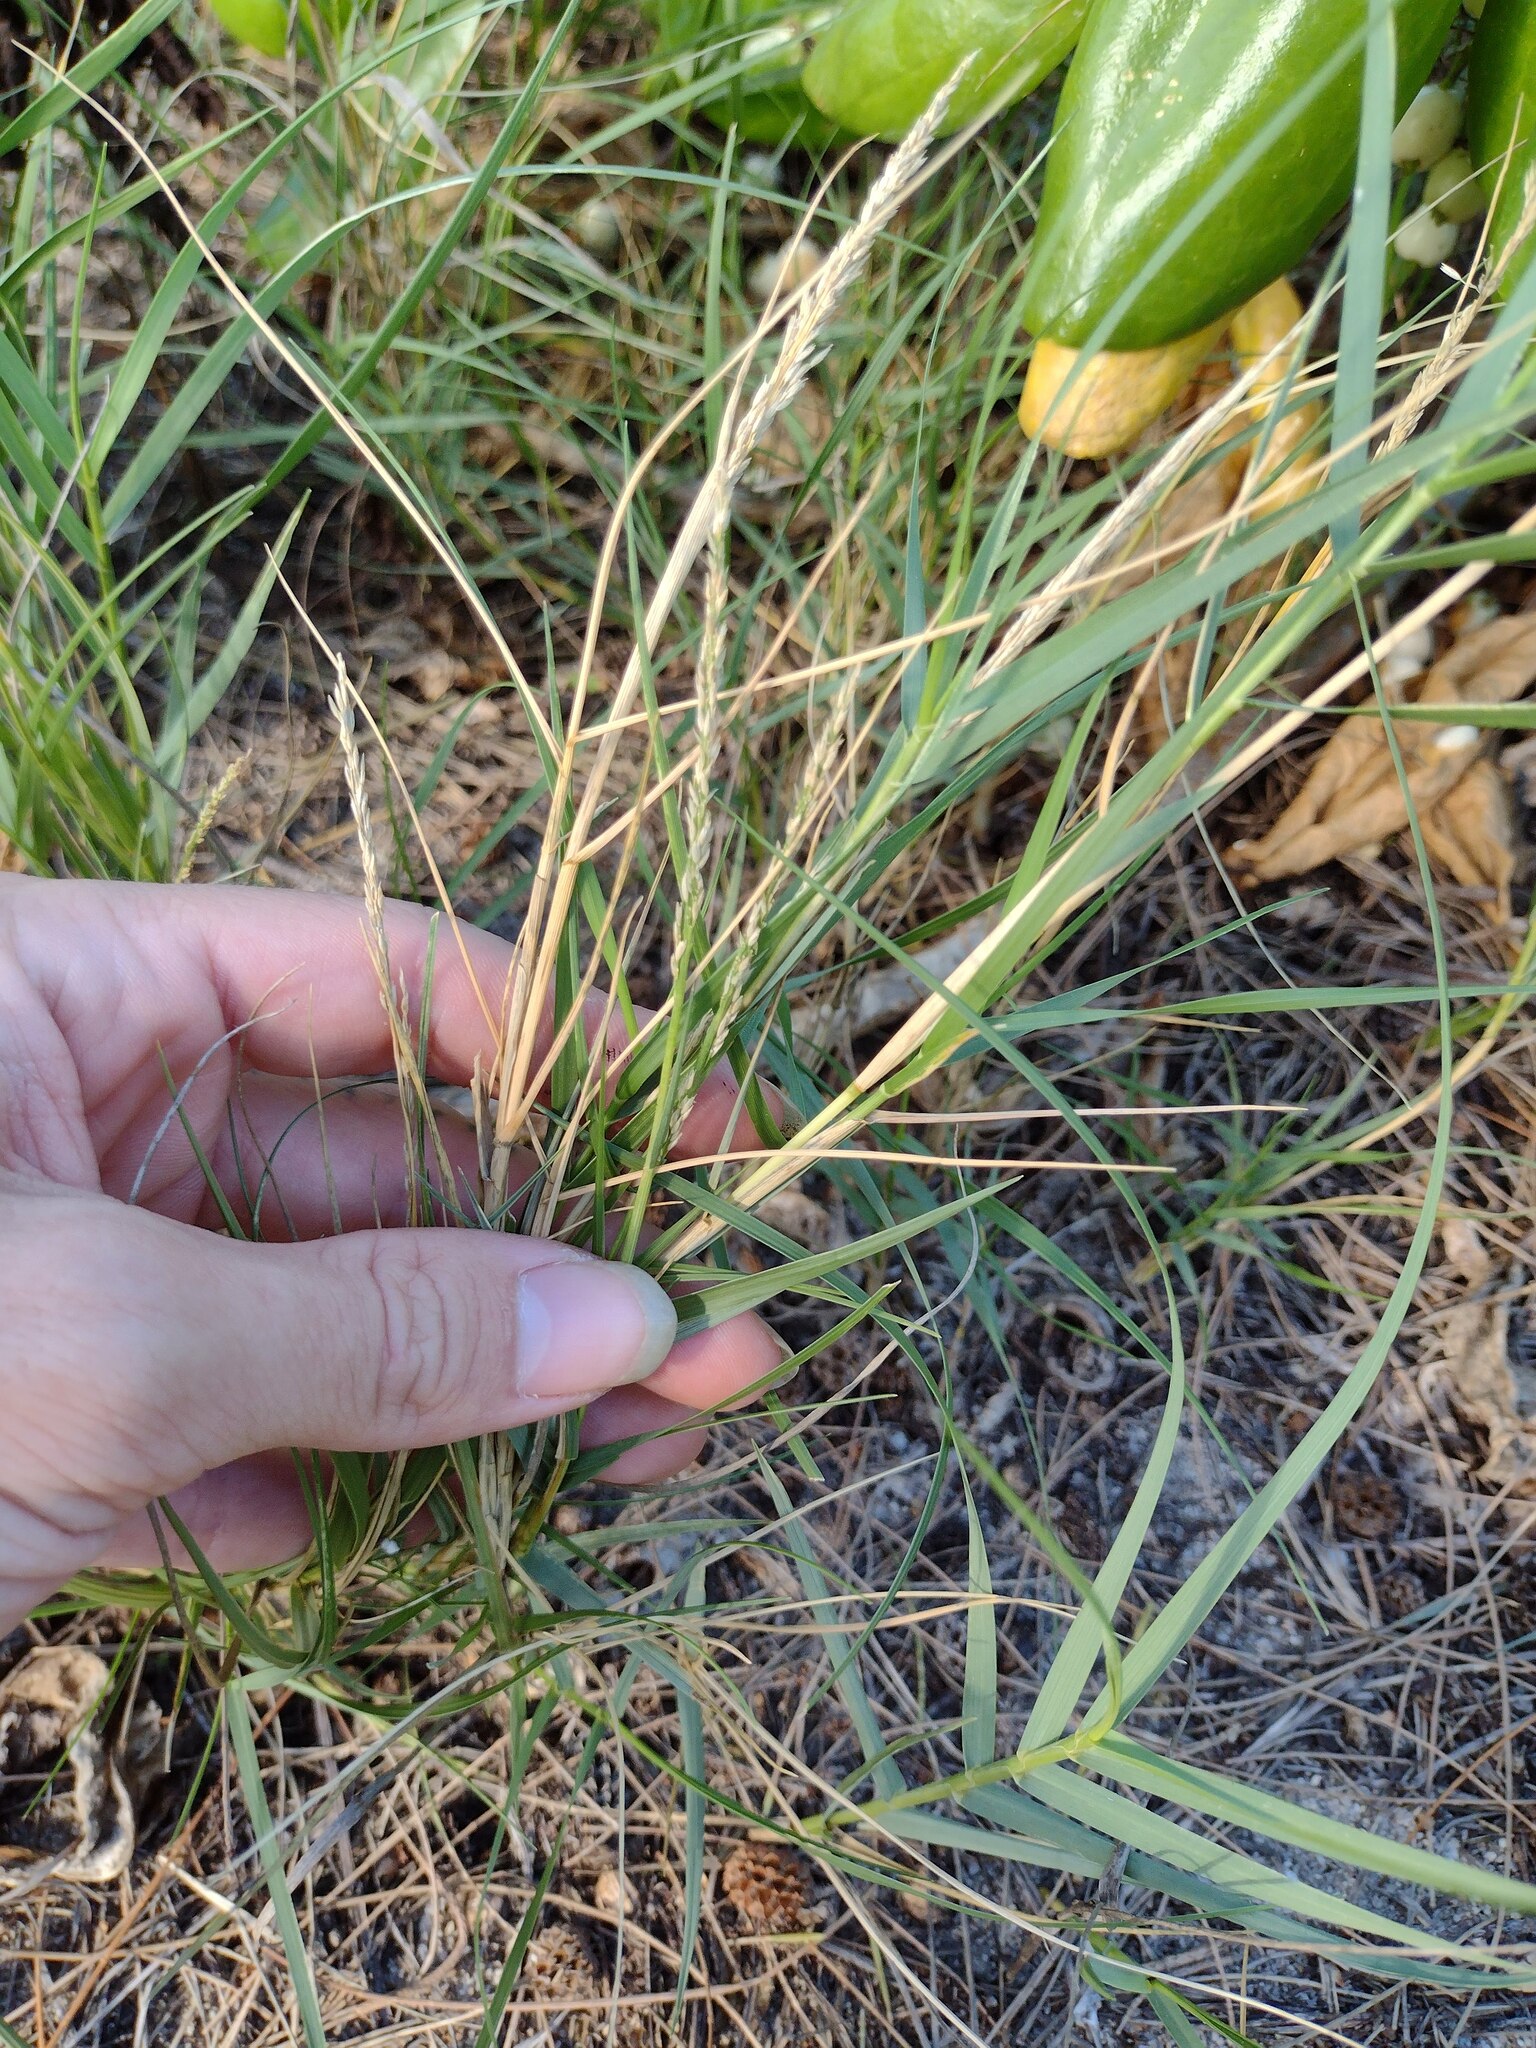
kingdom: Plantae
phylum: Tracheophyta
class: Liliopsida
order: Poales
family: Poaceae
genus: Sporobolus
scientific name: Sporobolus virginicus
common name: Beach dropseed
